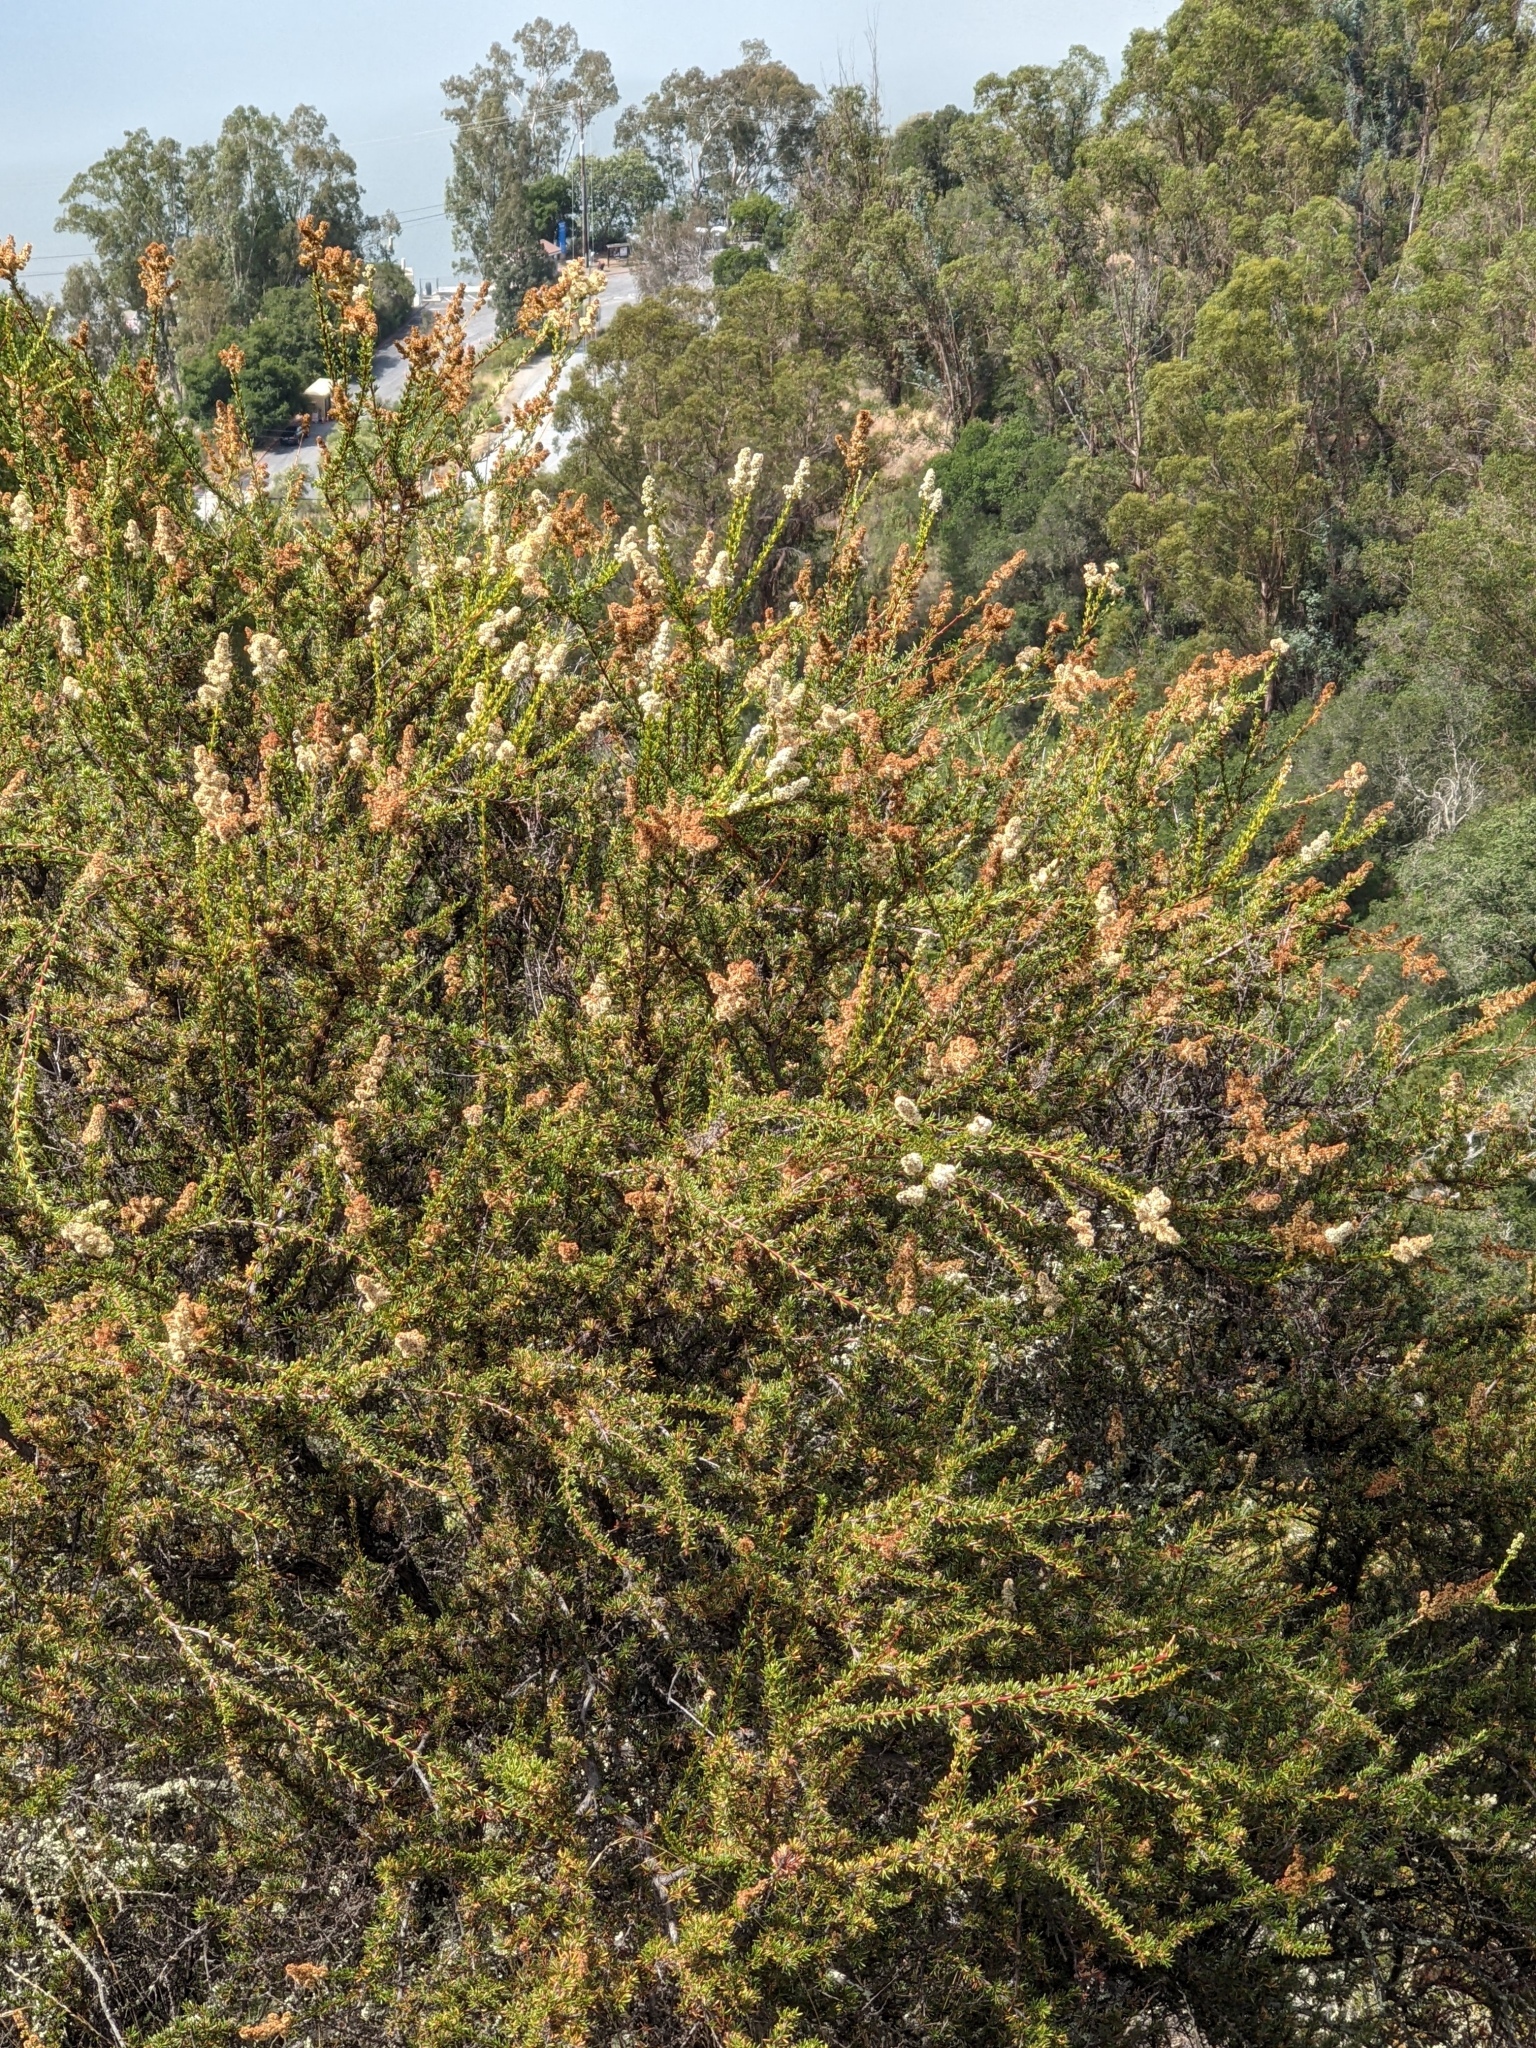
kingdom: Plantae
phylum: Tracheophyta
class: Magnoliopsida
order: Rosales
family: Rosaceae
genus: Adenostoma
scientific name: Adenostoma fasciculatum
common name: Chamise
